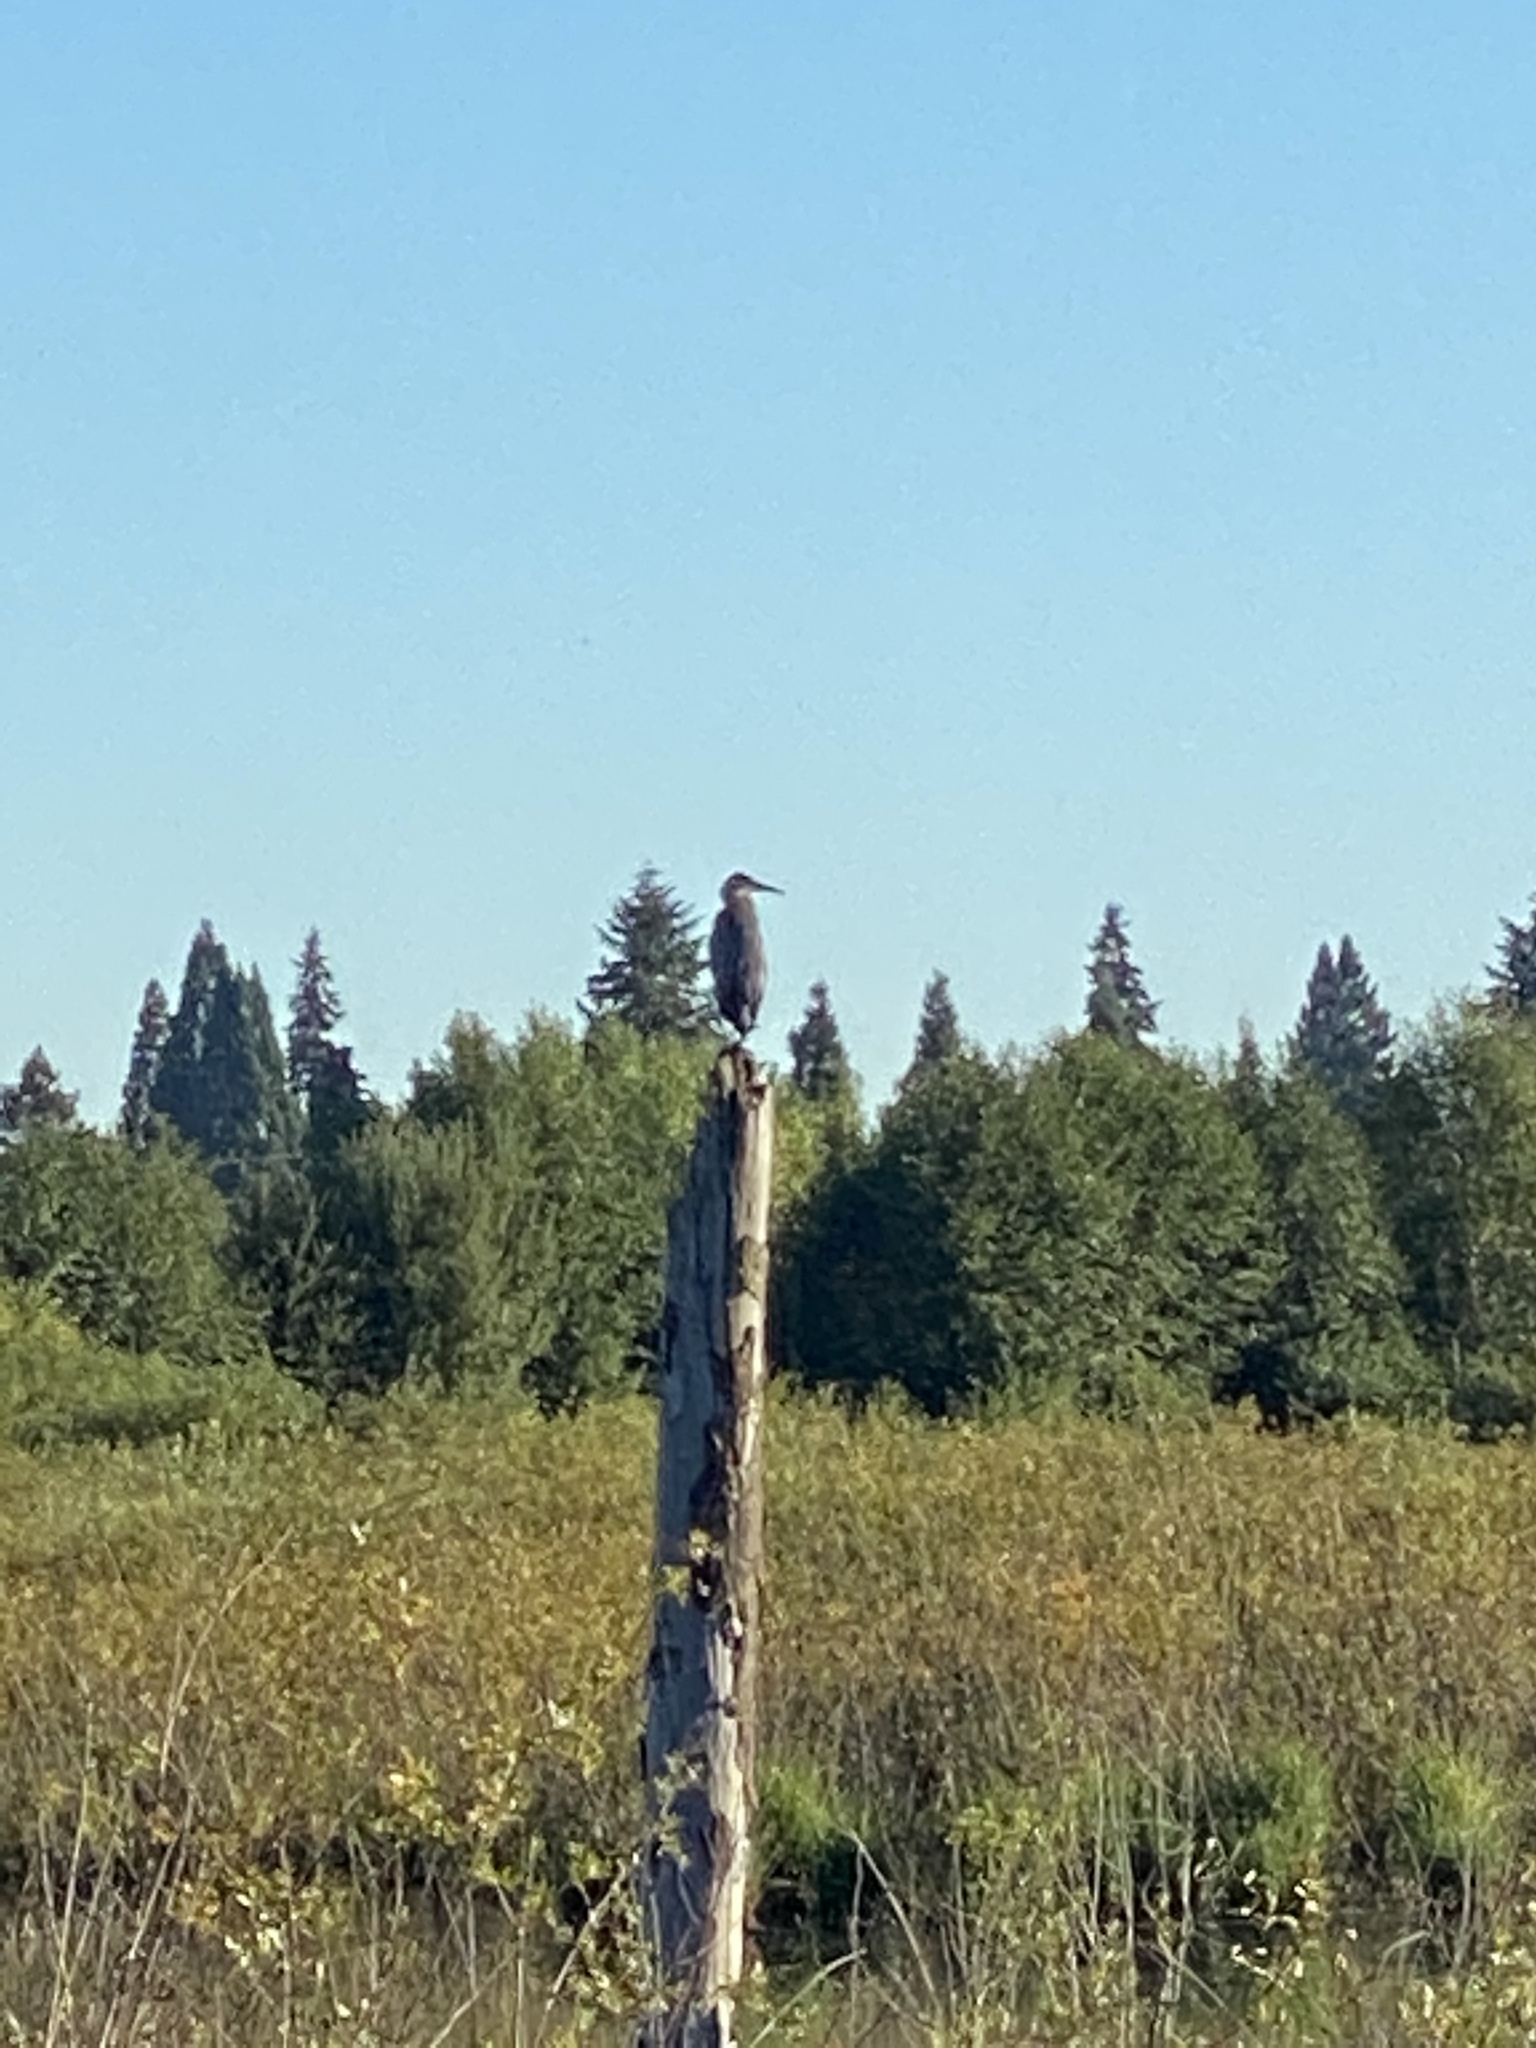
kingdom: Animalia
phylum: Chordata
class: Aves
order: Pelecaniformes
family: Ardeidae
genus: Ardea
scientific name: Ardea herodias
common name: Great blue heron
